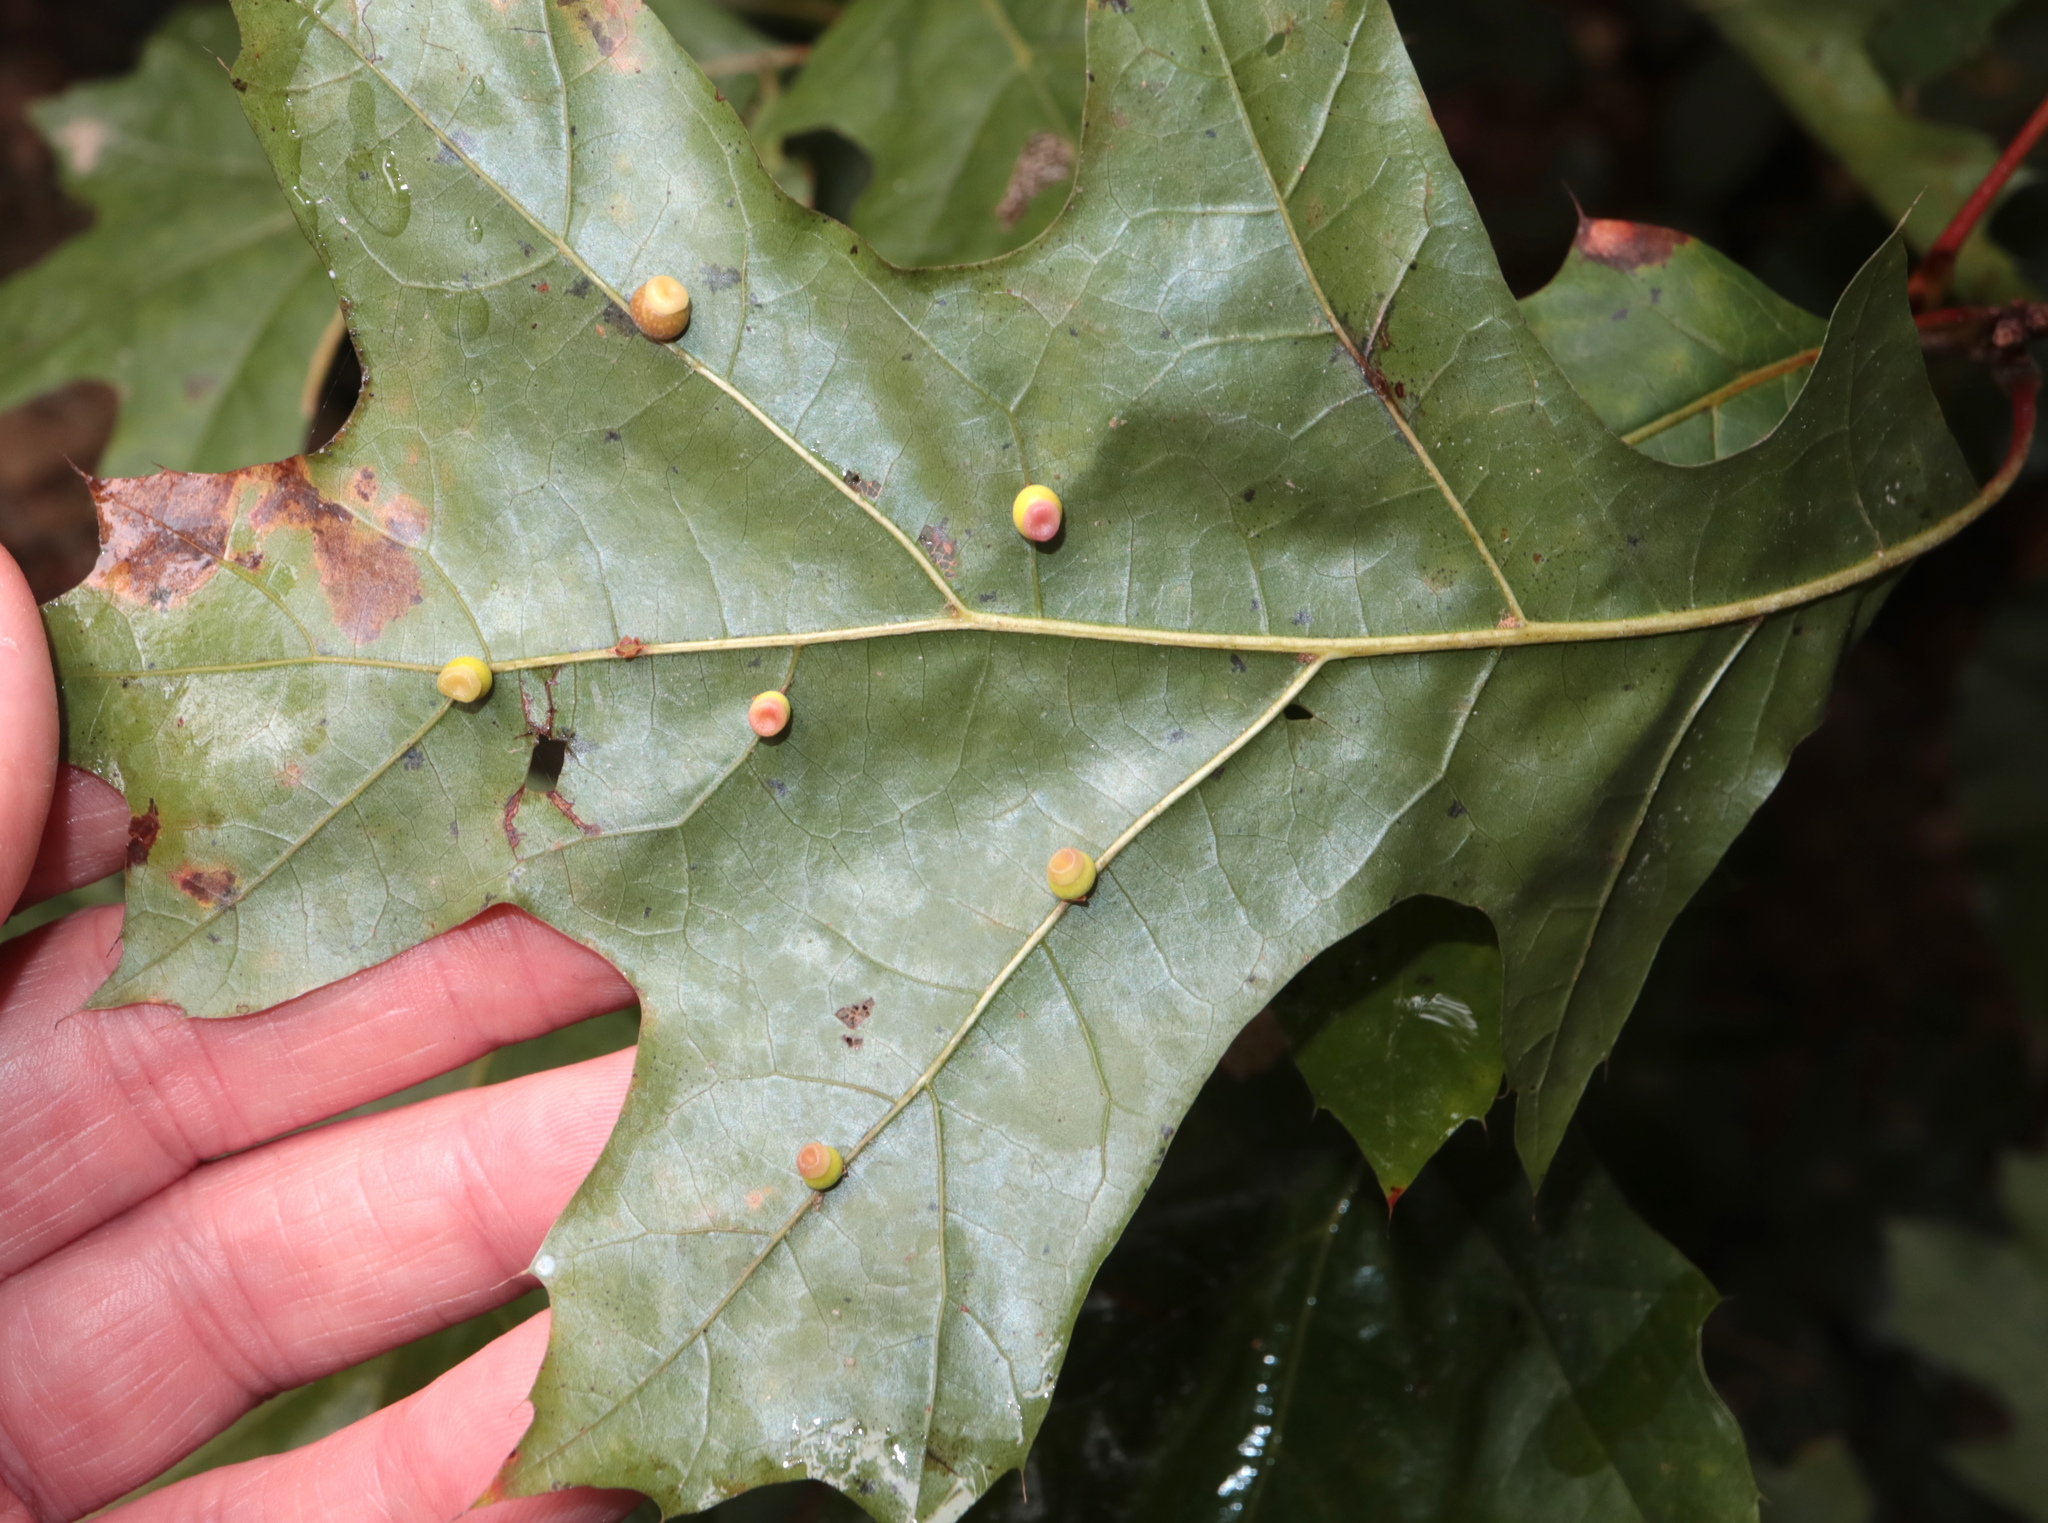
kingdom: Animalia
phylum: Arthropoda
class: Insecta
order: Hymenoptera
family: Cynipidae
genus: Kokkocynips
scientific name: Kokkocynips rileyi
